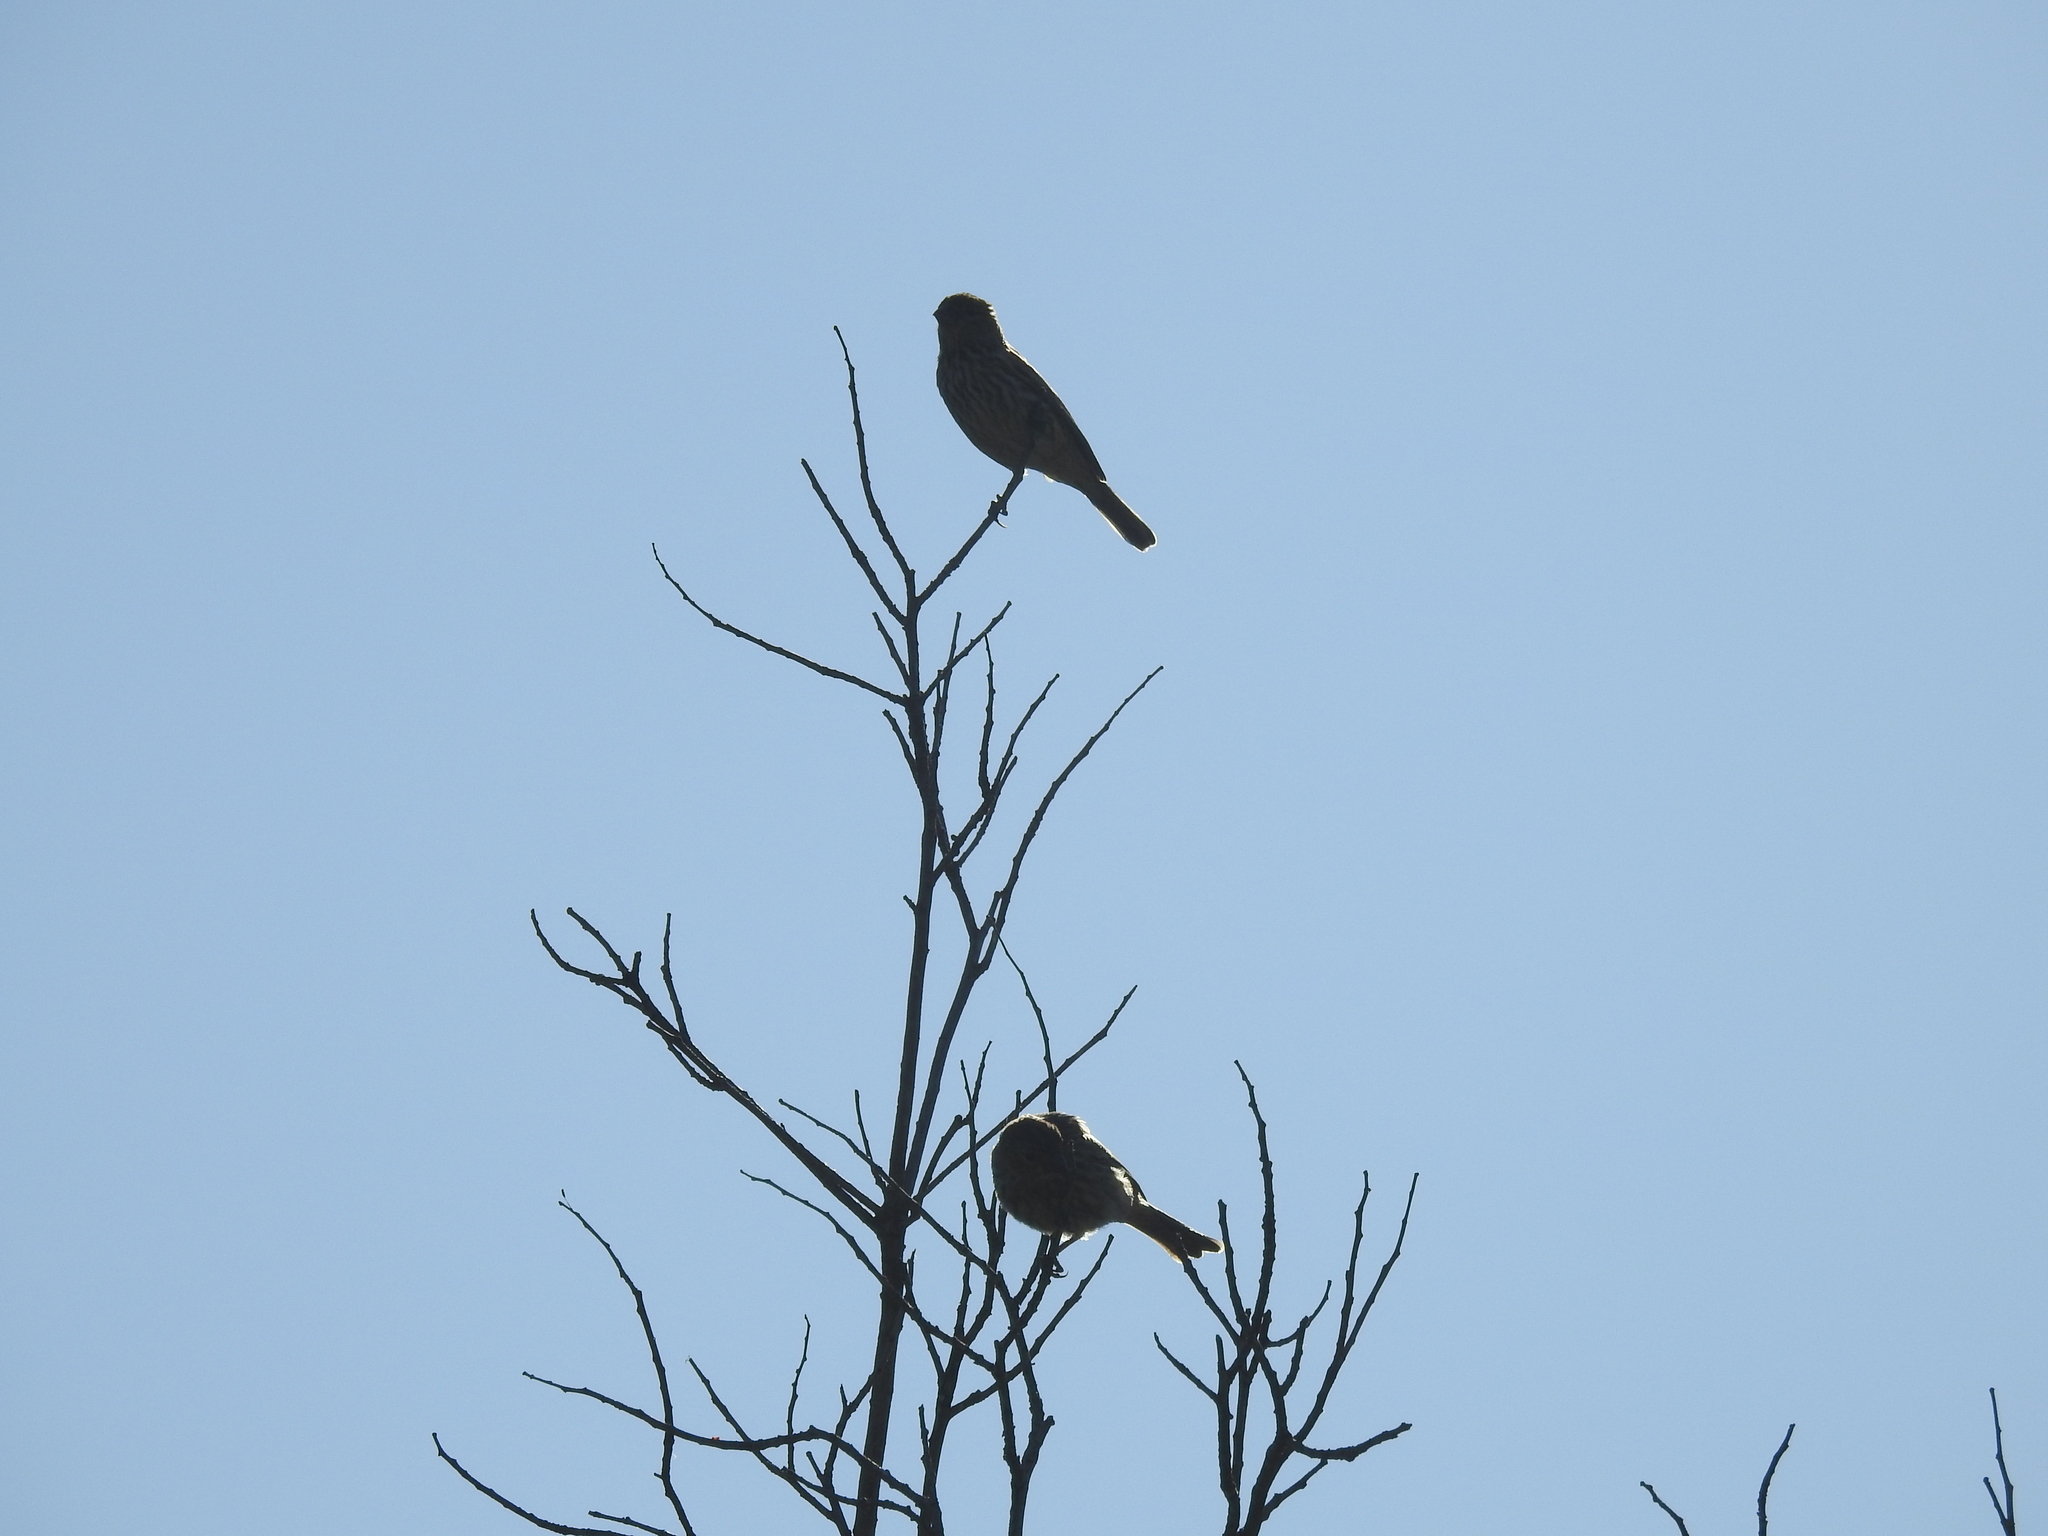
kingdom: Animalia
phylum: Chordata
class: Aves
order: Passeriformes
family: Fringillidae
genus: Haemorhous
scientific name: Haemorhous mexicanus
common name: House finch
